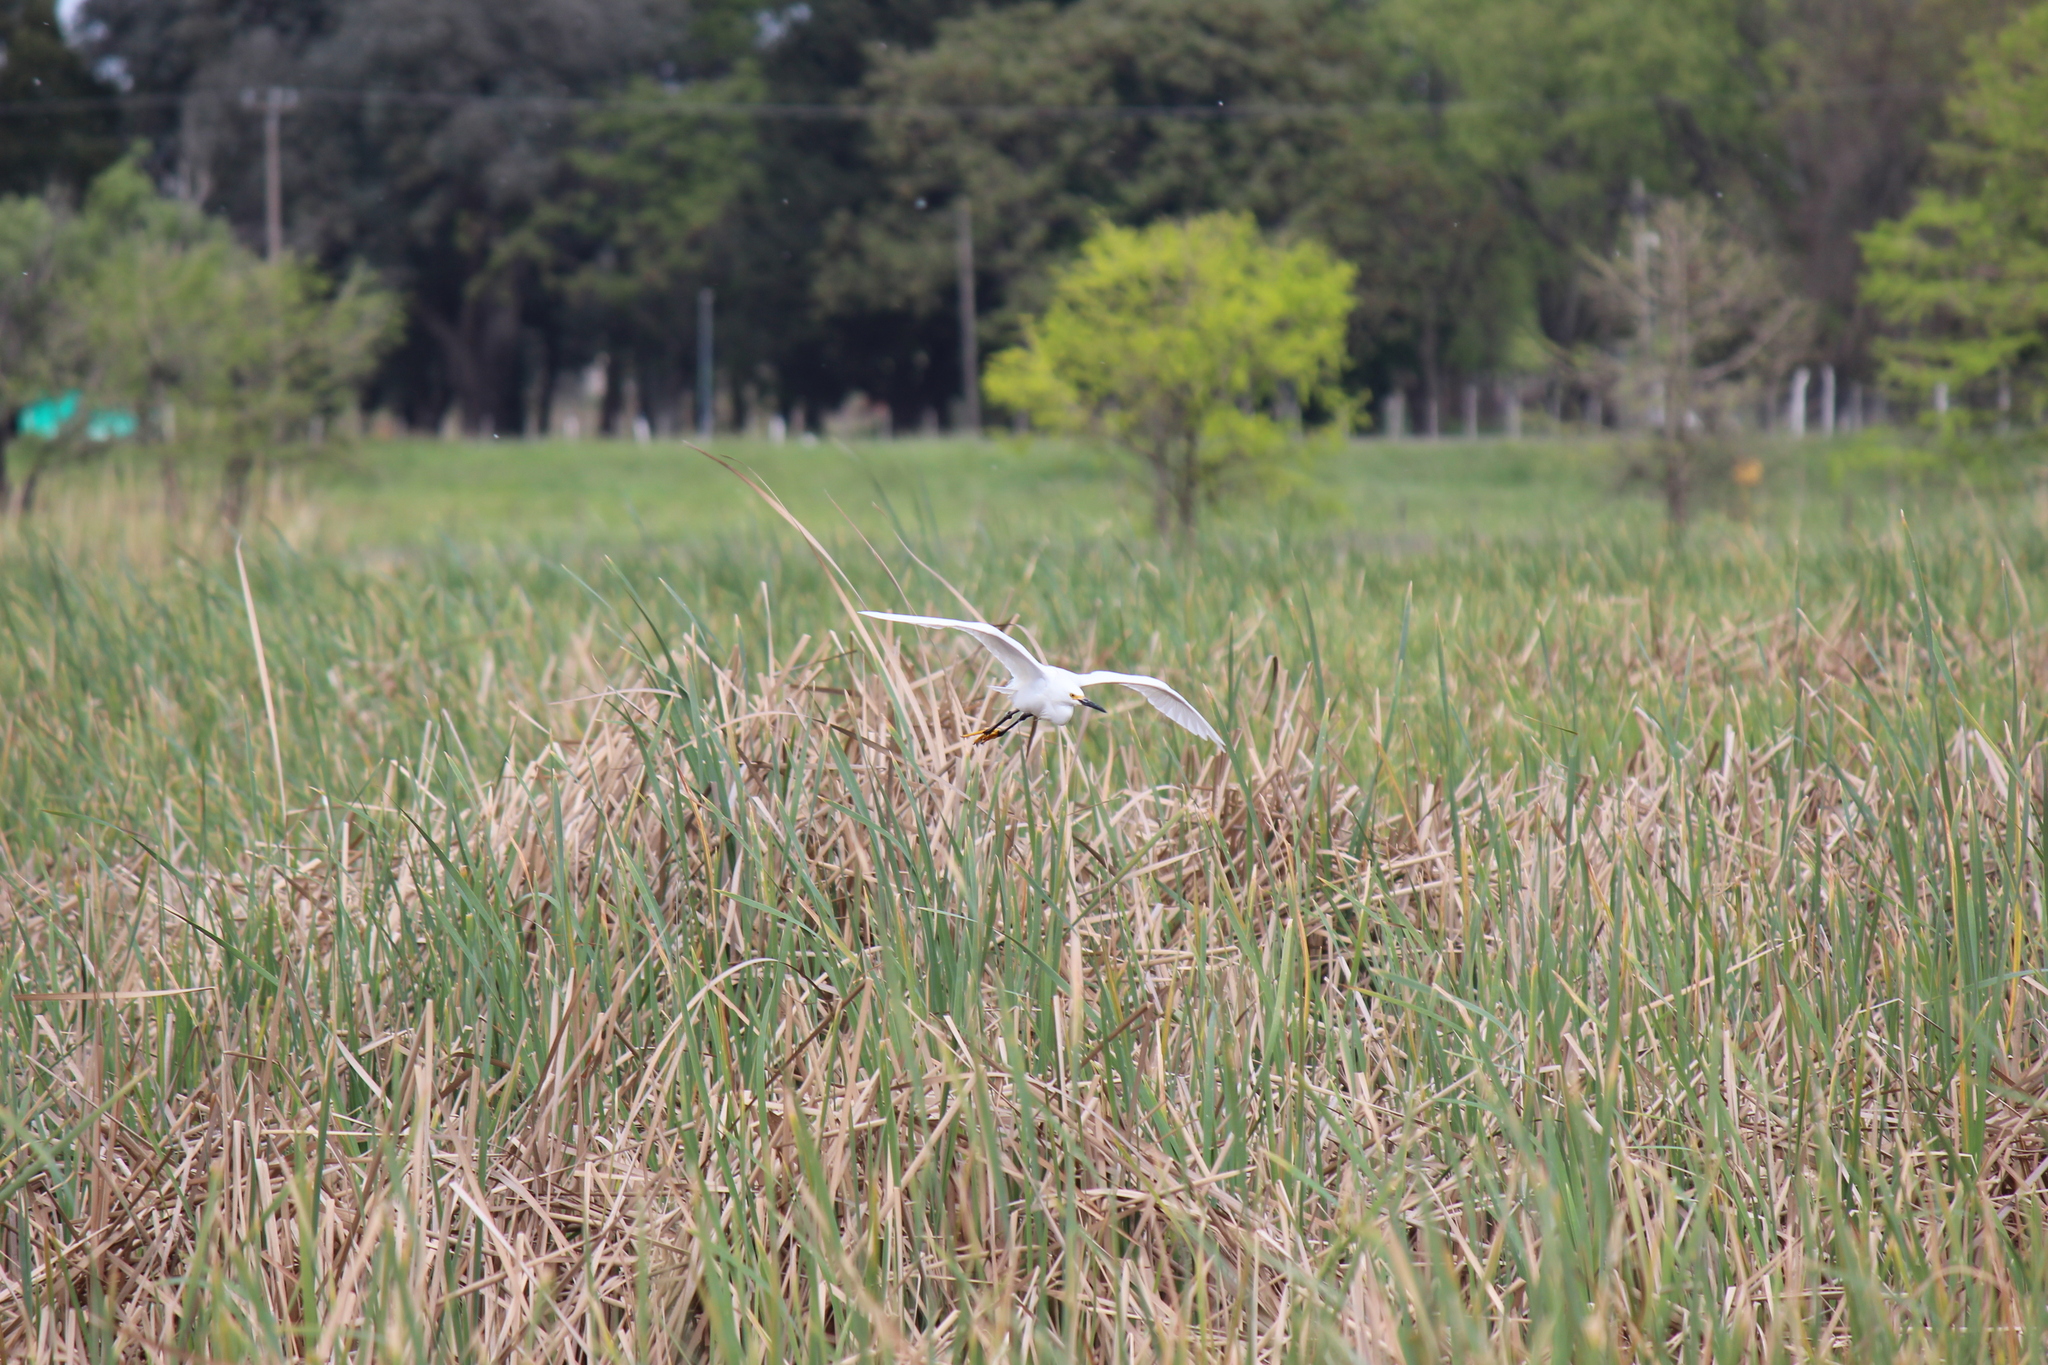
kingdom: Animalia
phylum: Chordata
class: Aves
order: Pelecaniformes
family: Ardeidae
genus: Egretta
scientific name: Egretta thula
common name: Snowy egret
